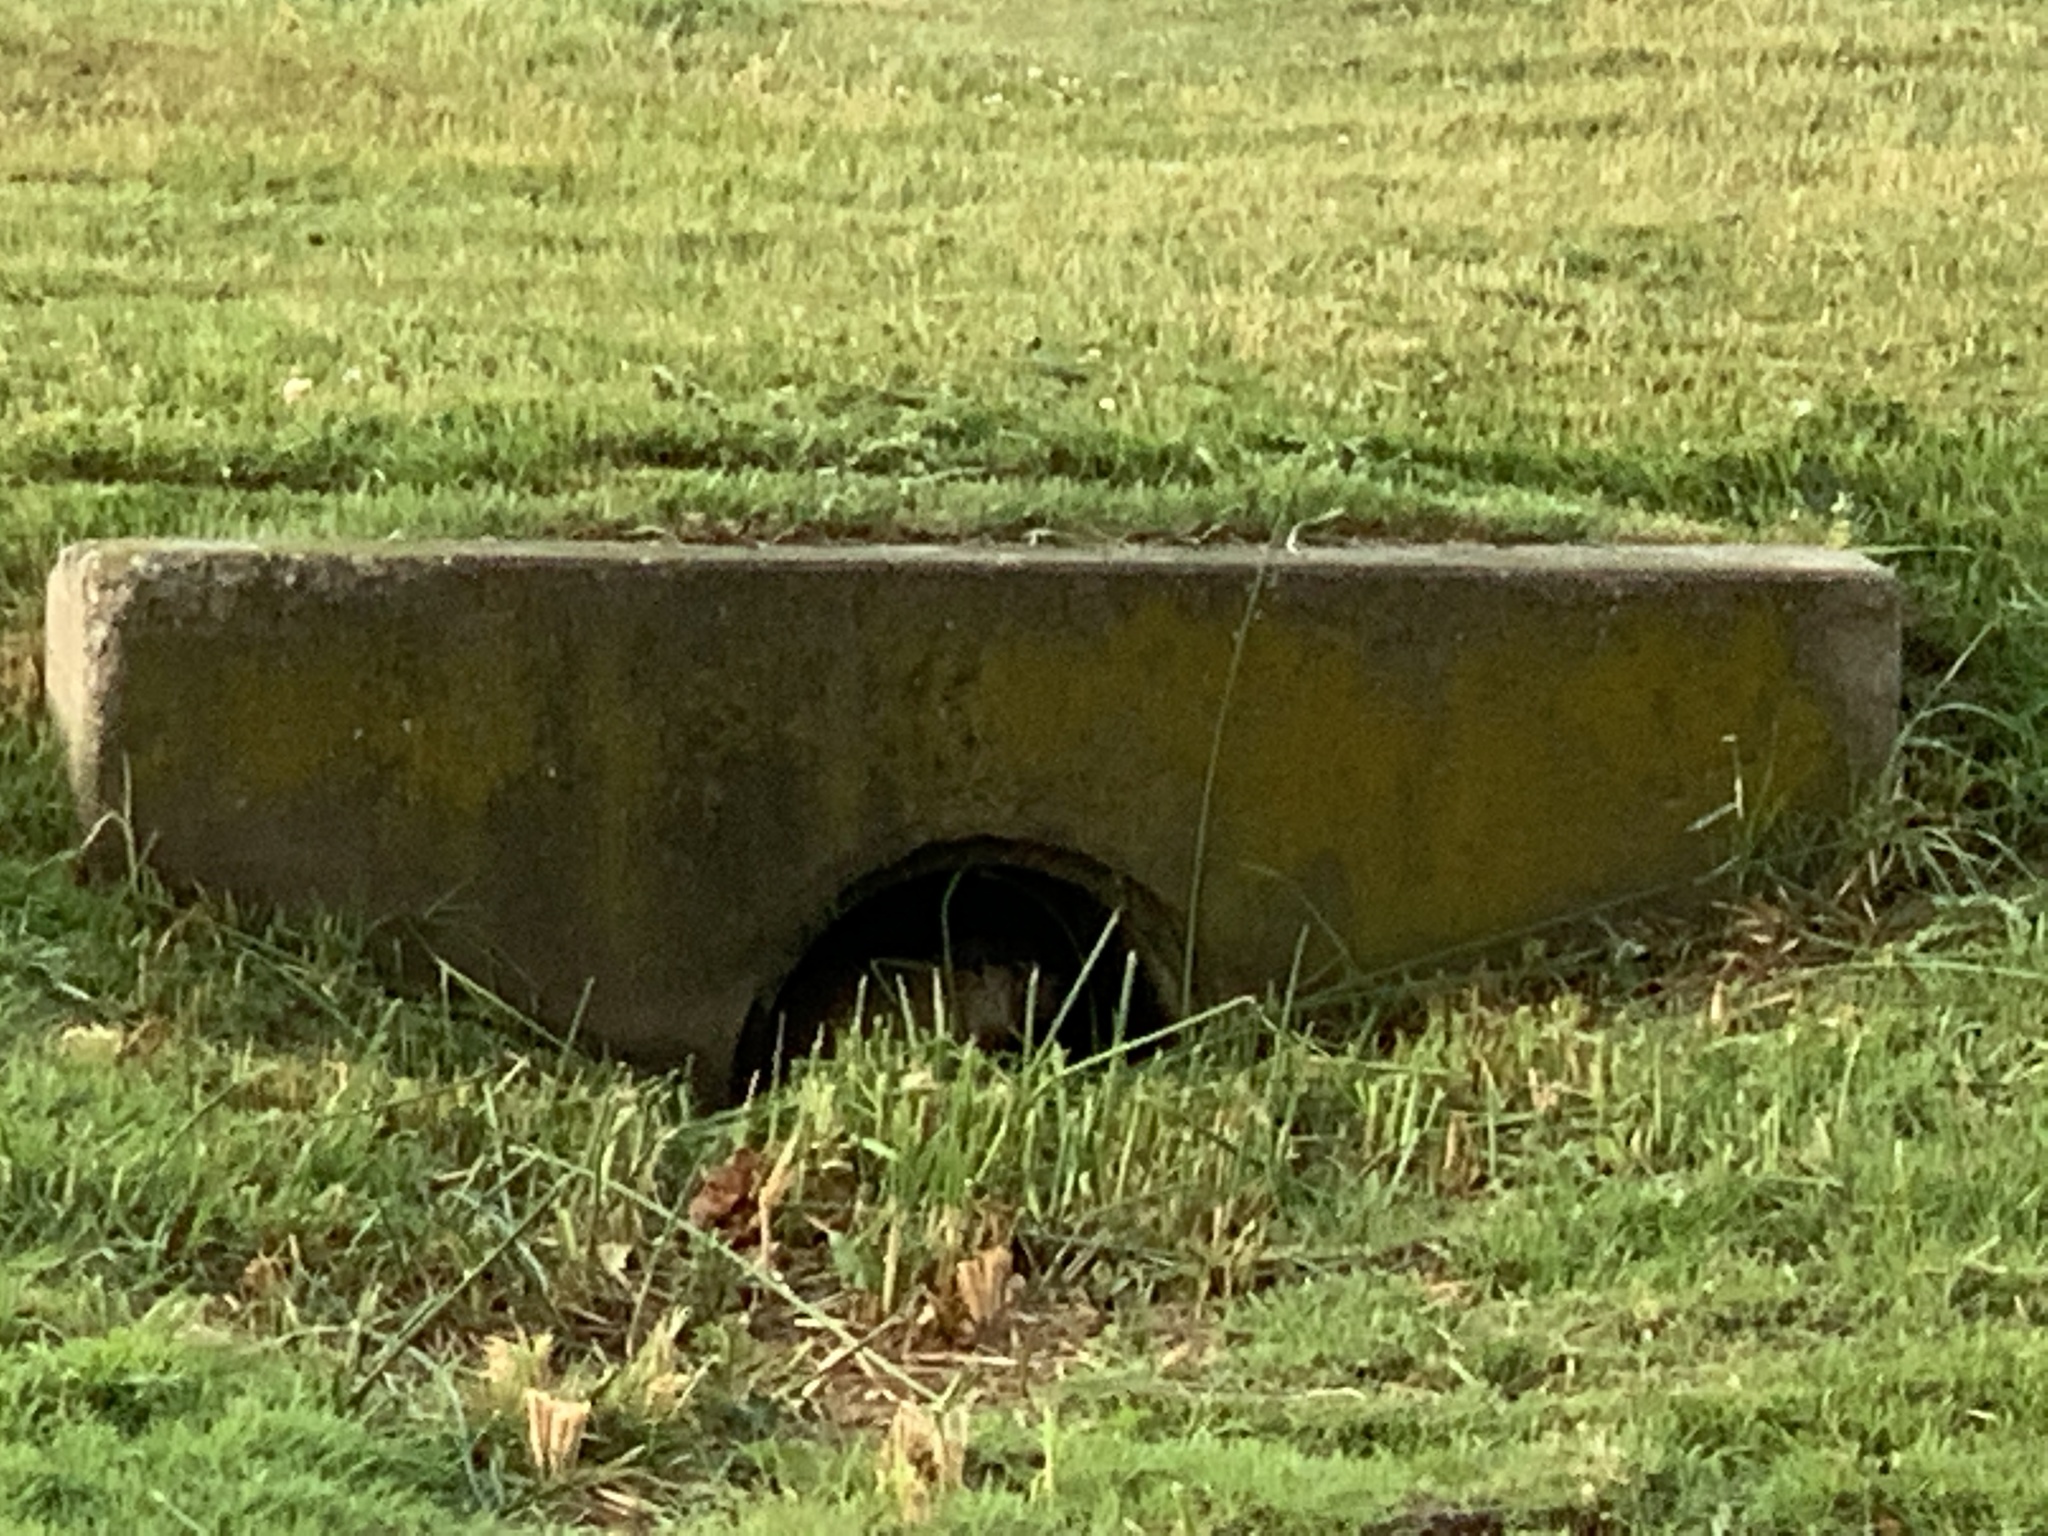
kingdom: Animalia
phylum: Chordata
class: Mammalia
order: Rodentia
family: Sciuridae
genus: Marmota
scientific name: Marmota monax
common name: Groundhog
